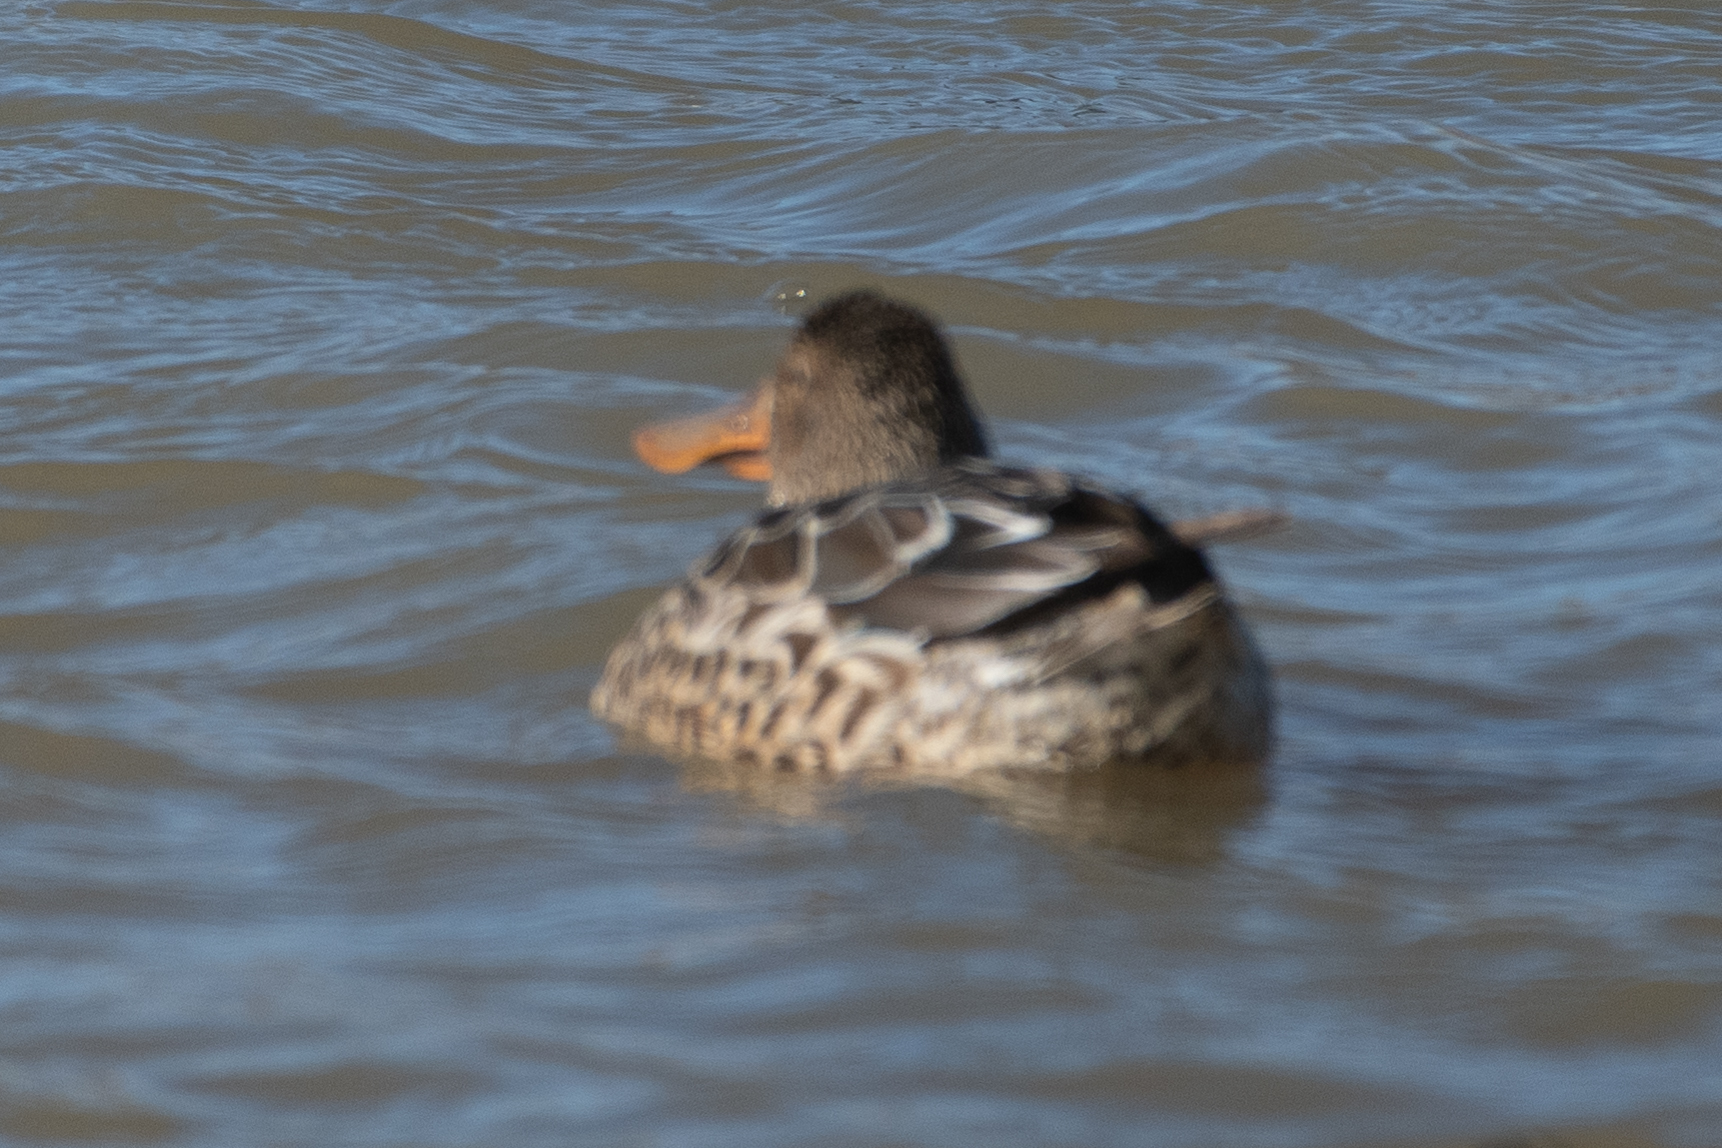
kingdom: Animalia
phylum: Chordata
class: Aves
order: Anseriformes
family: Anatidae
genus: Spatula
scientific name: Spatula clypeata
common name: Northern shoveler
